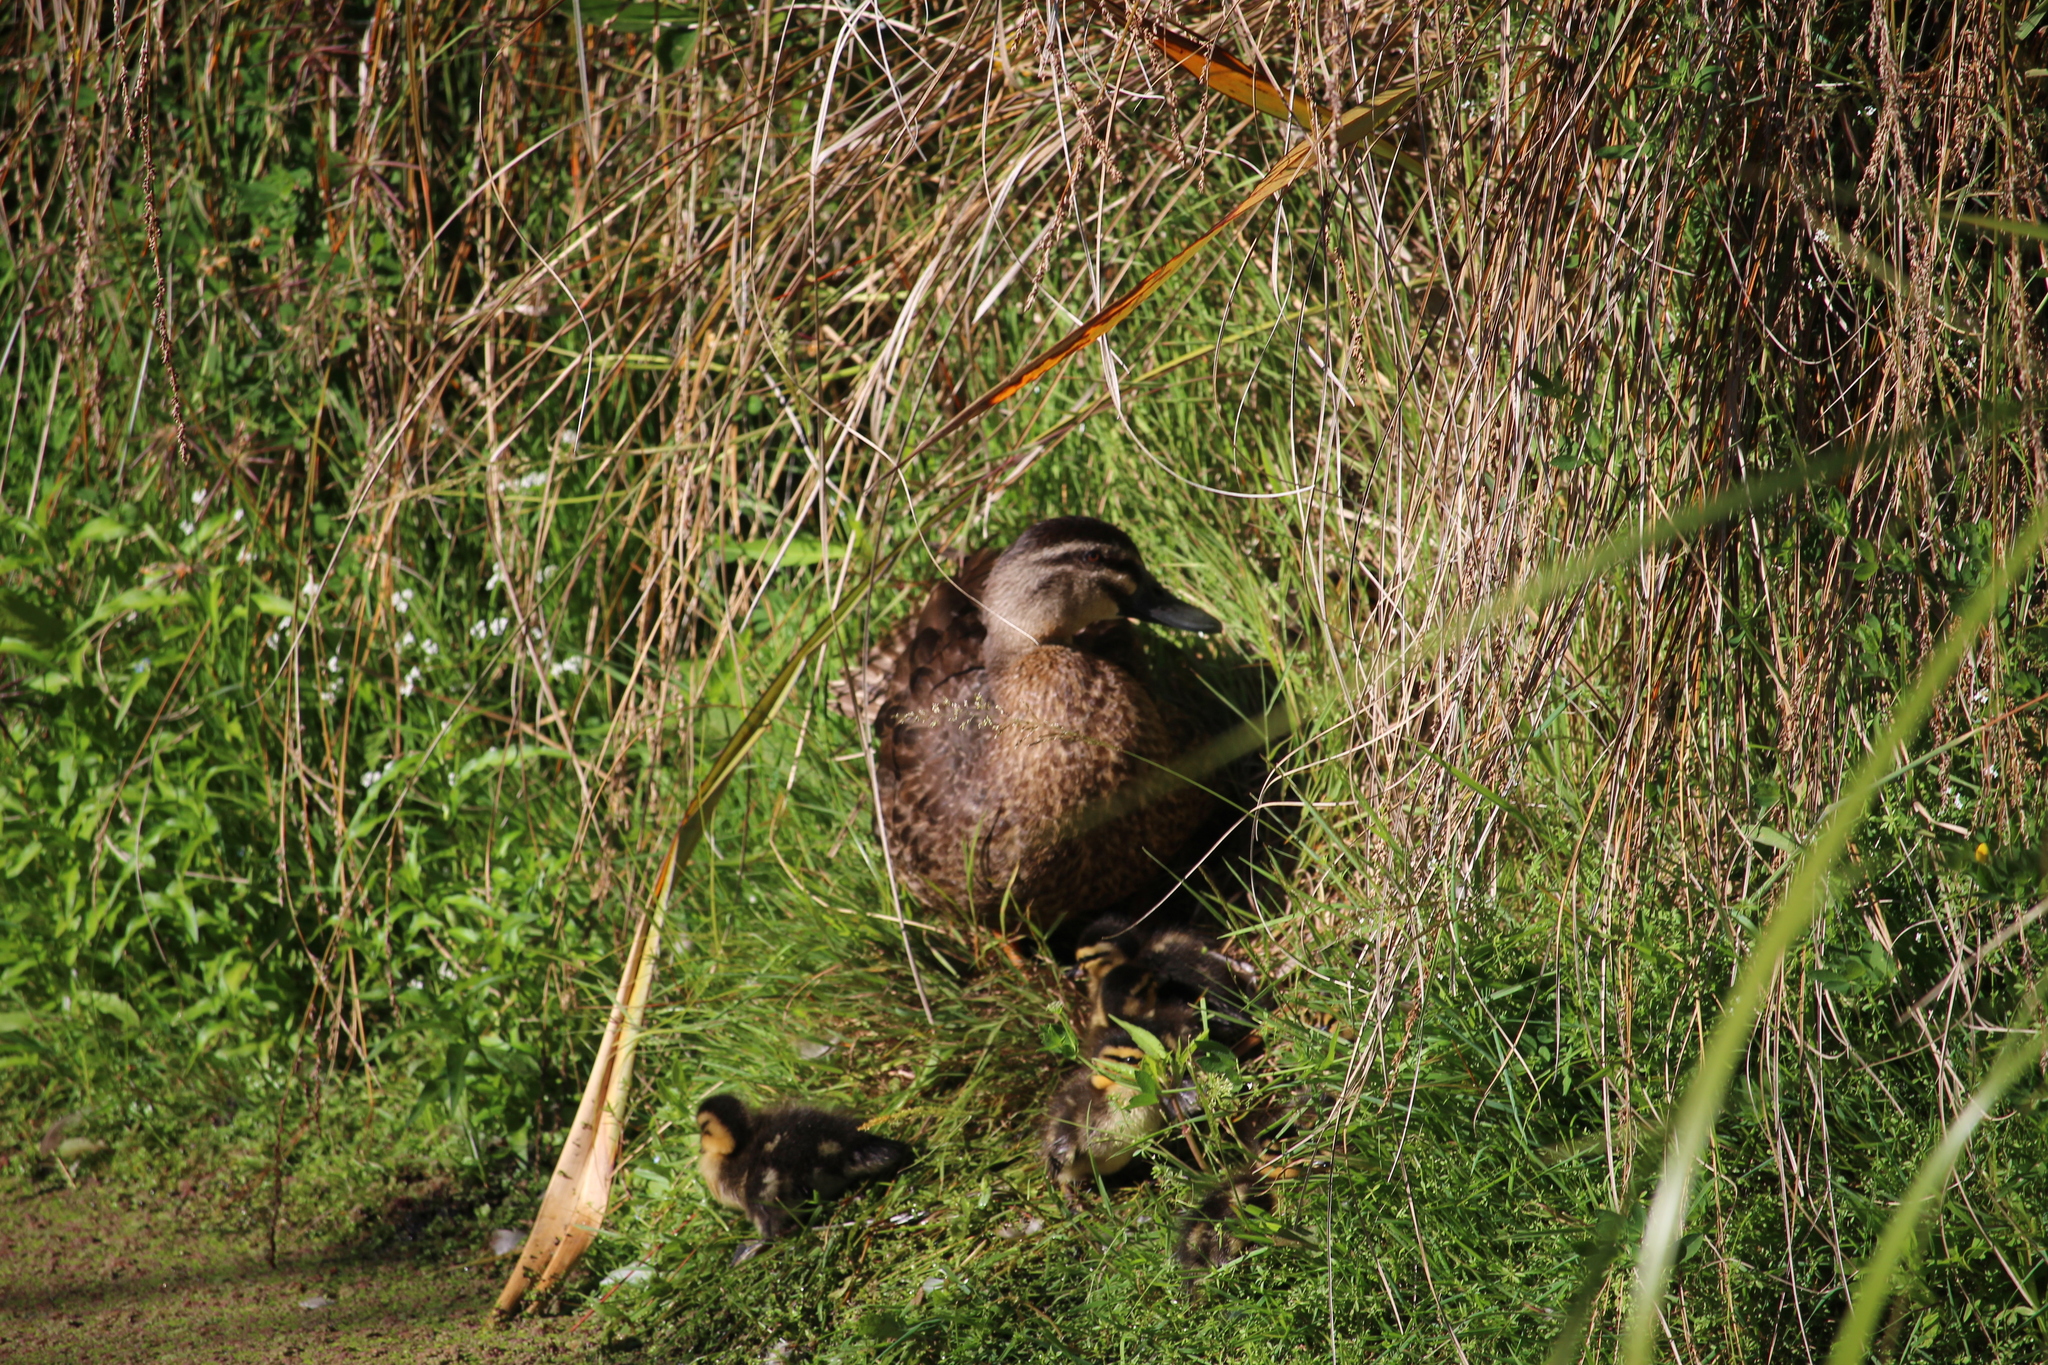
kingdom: Animalia
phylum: Chordata
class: Aves
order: Anseriformes
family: Anatidae
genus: Anas
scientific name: Anas
